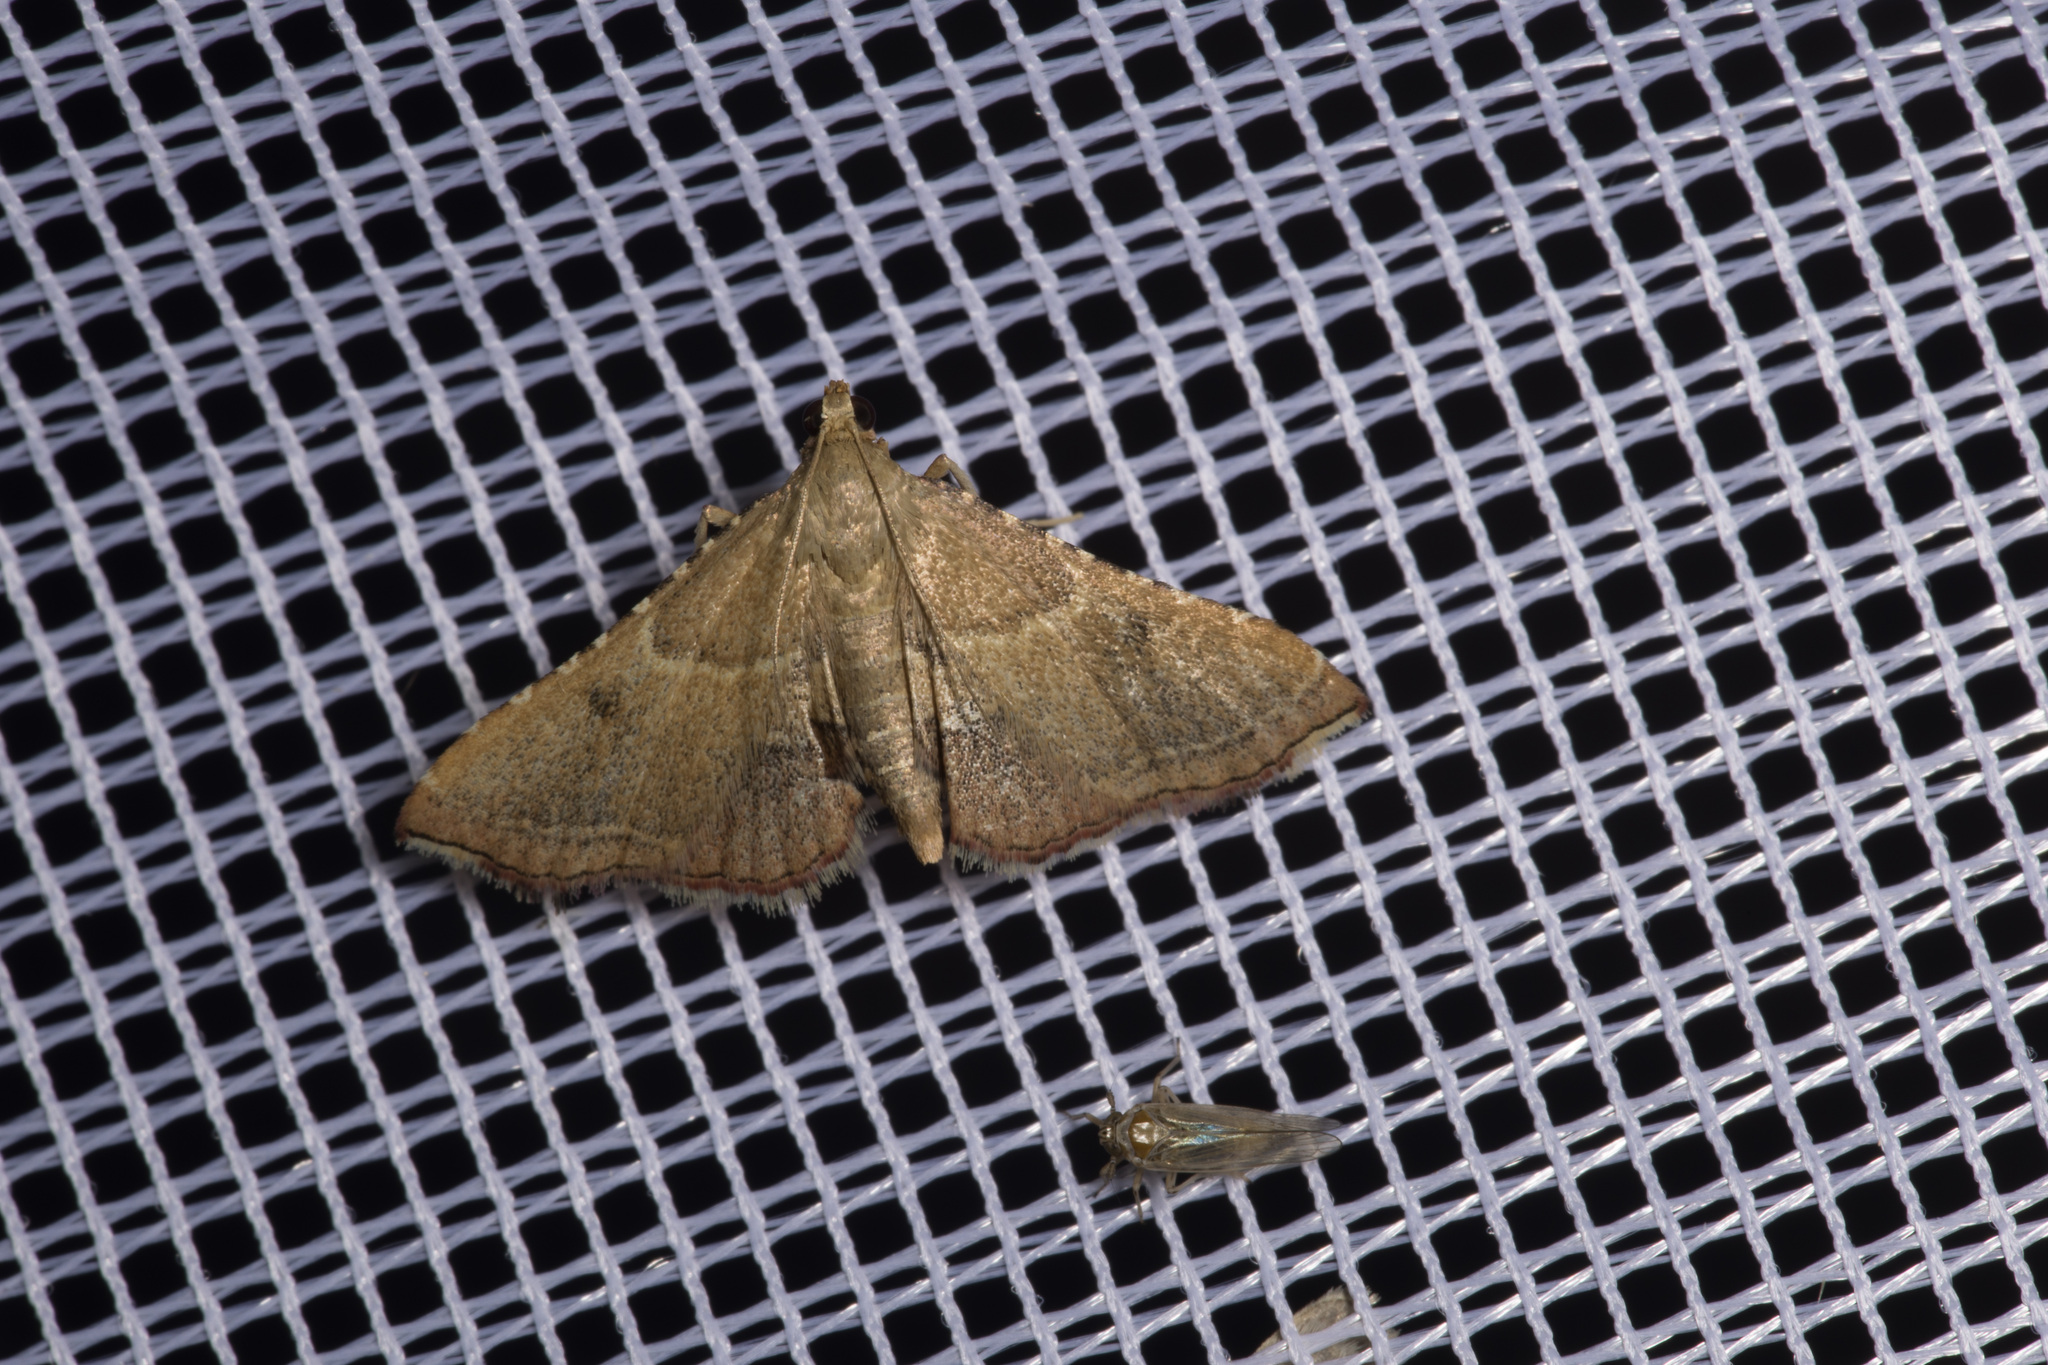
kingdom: Animalia
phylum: Arthropoda
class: Insecta
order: Lepidoptera
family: Pyralidae
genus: Endotricha
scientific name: Endotricha flammealis
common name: Rosy tabby
